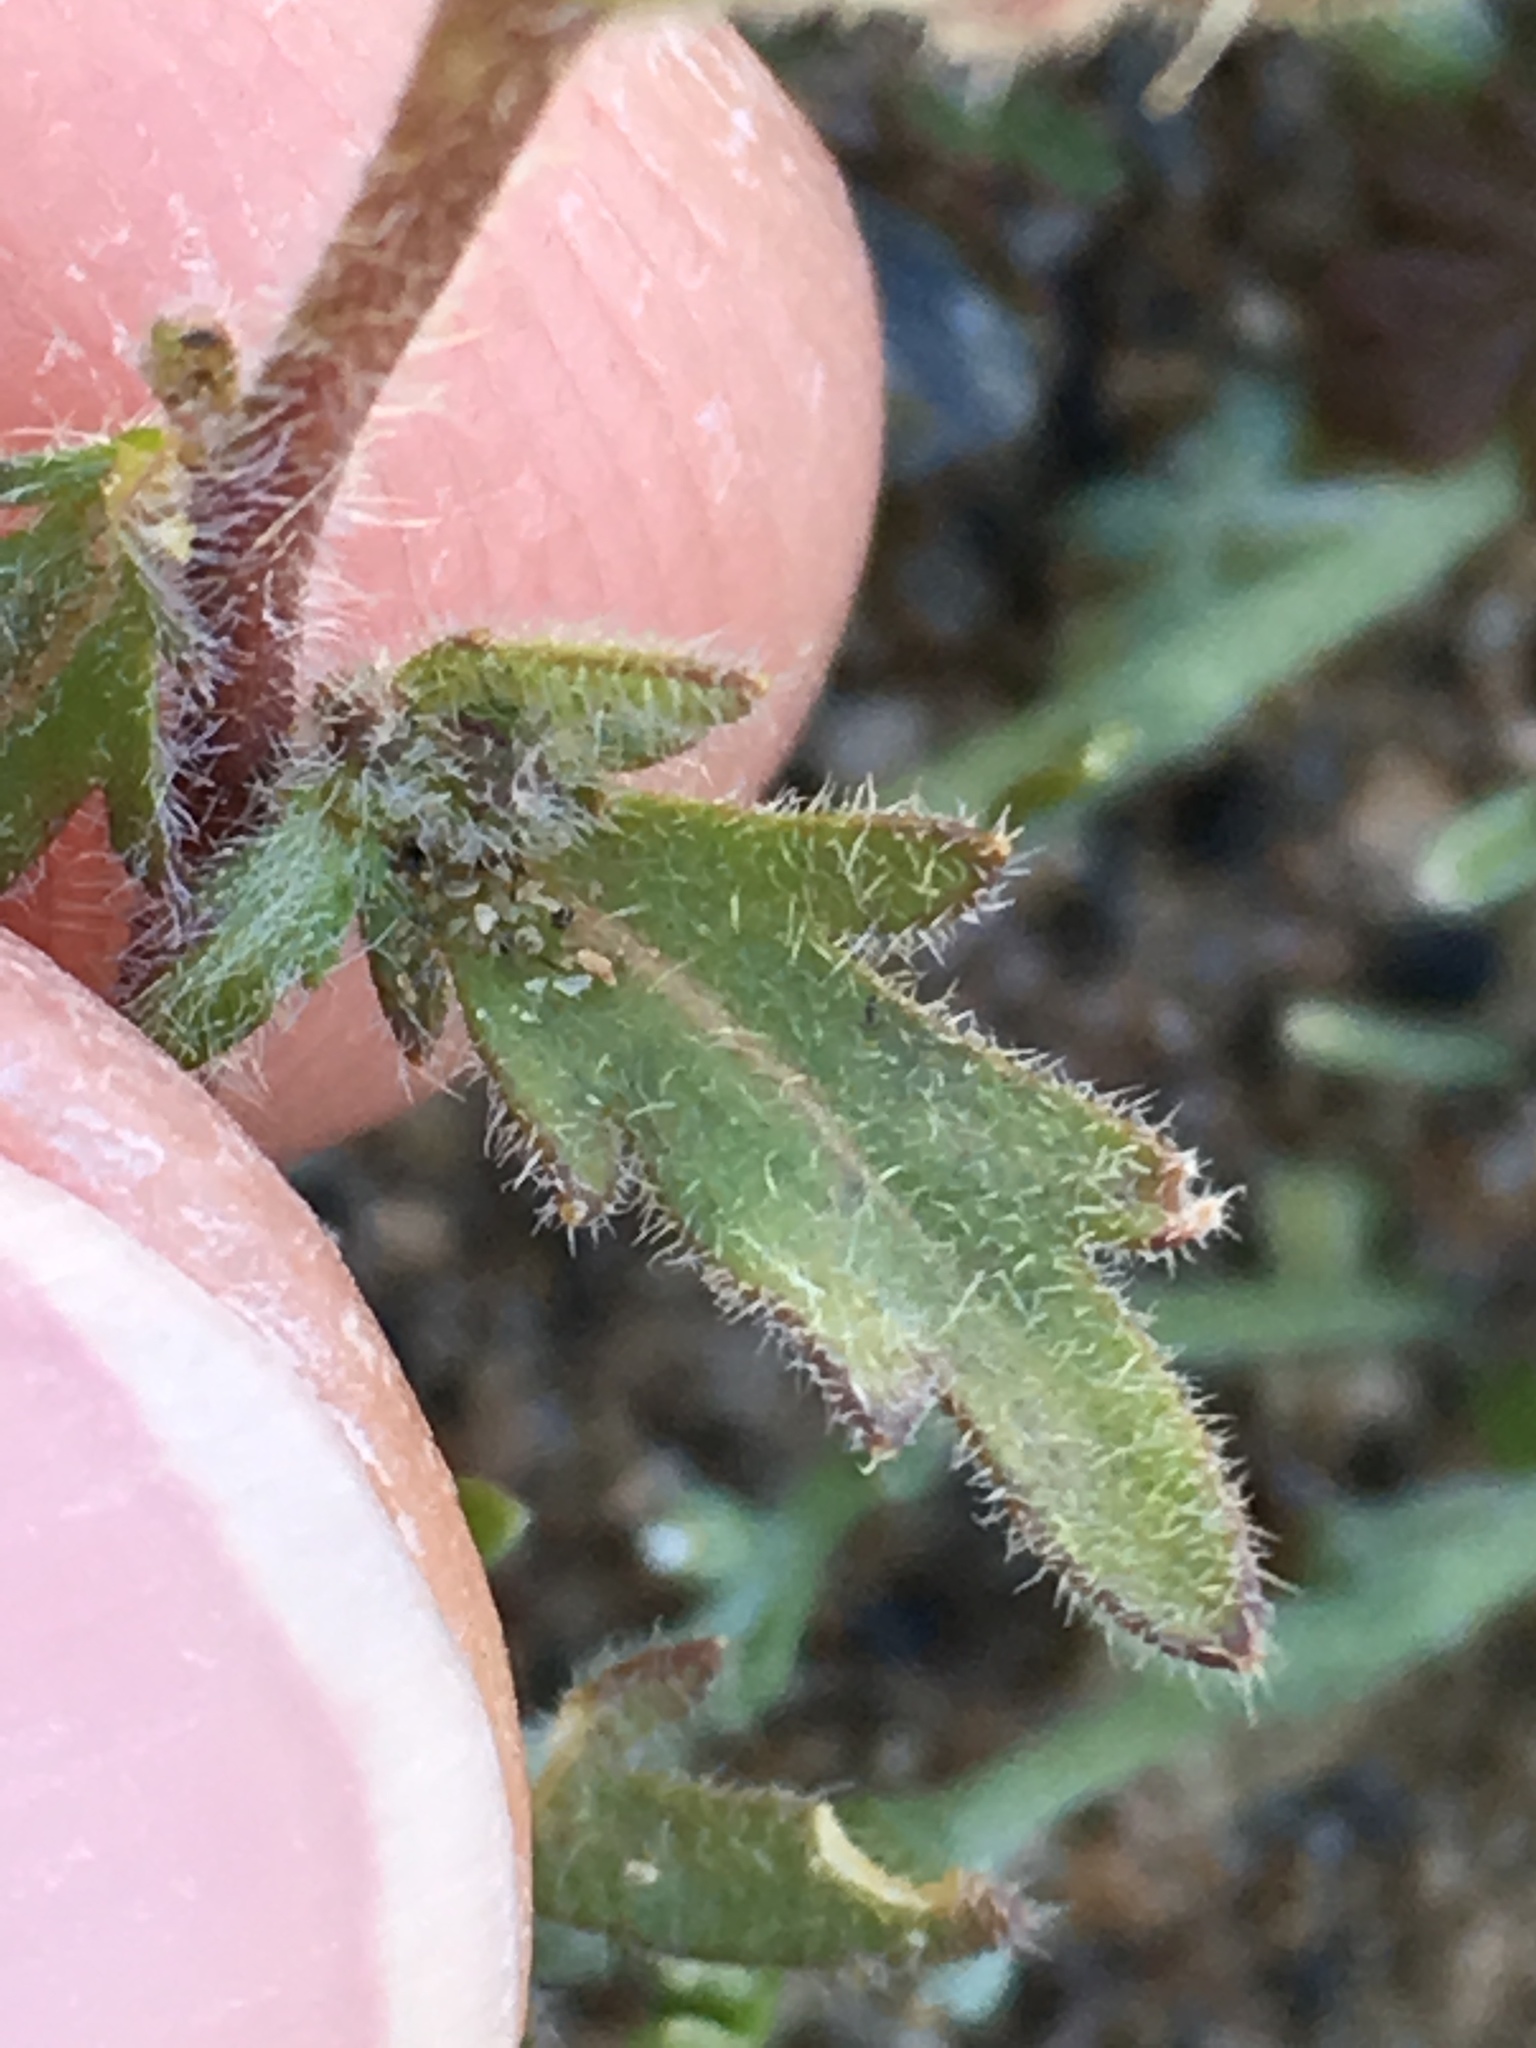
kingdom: Plantae
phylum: Tracheophyta
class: Magnoliopsida
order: Brassicales
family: Brassicaceae
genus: Tropidocarpum
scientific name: Tropidocarpum gracile
